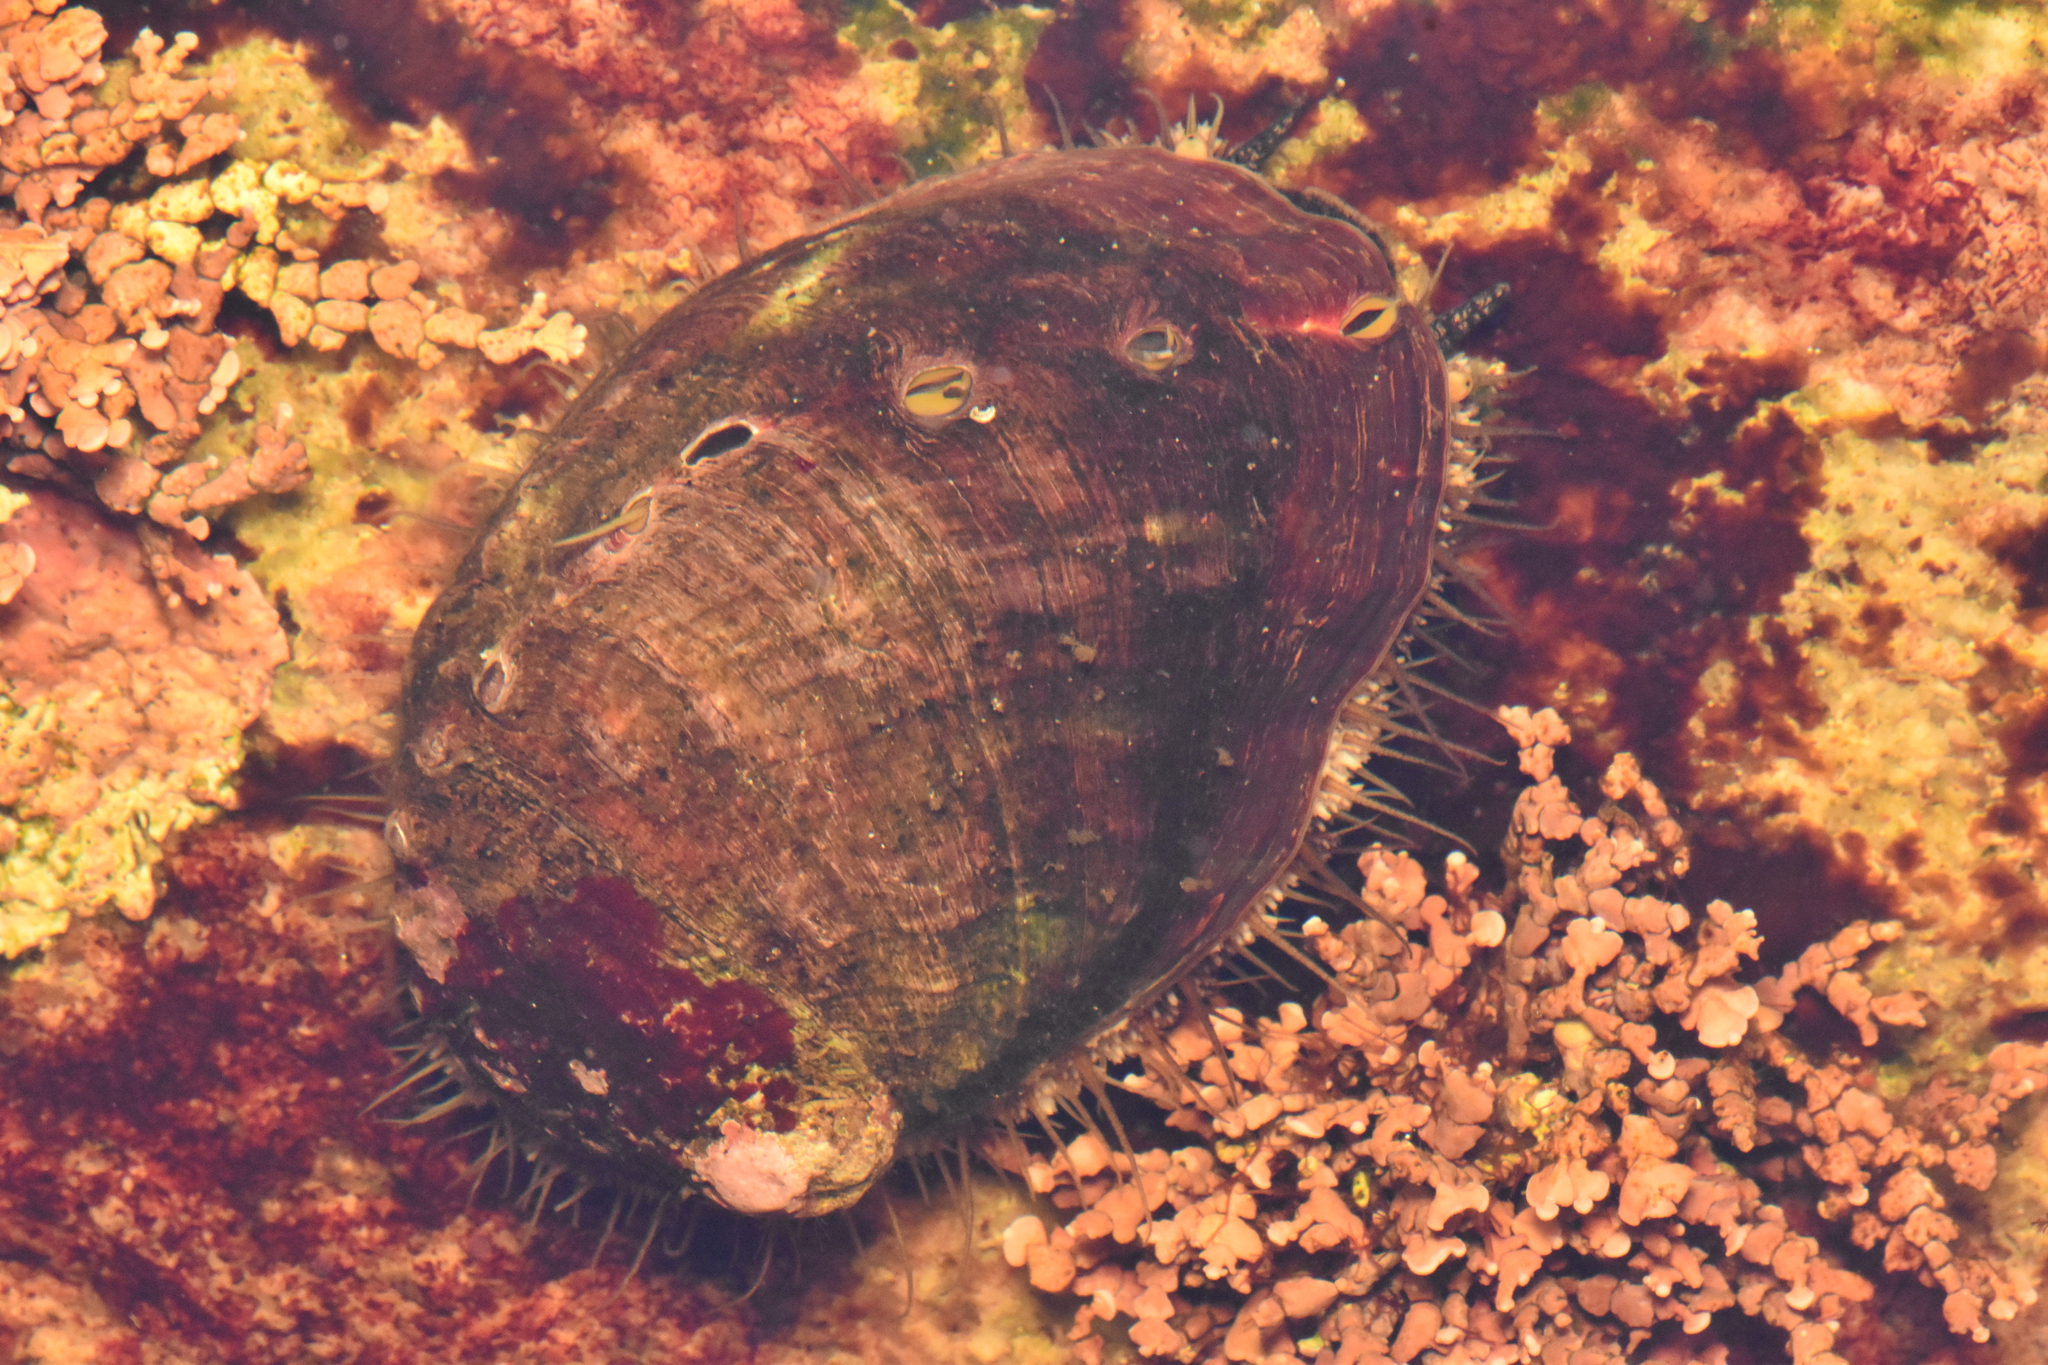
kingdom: Animalia
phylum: Mollusca
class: Gastropoda
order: Lepetellida
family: Haliotidae
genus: Haliotis
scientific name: Haliotis kamtschatkana
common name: Pinto abalone
